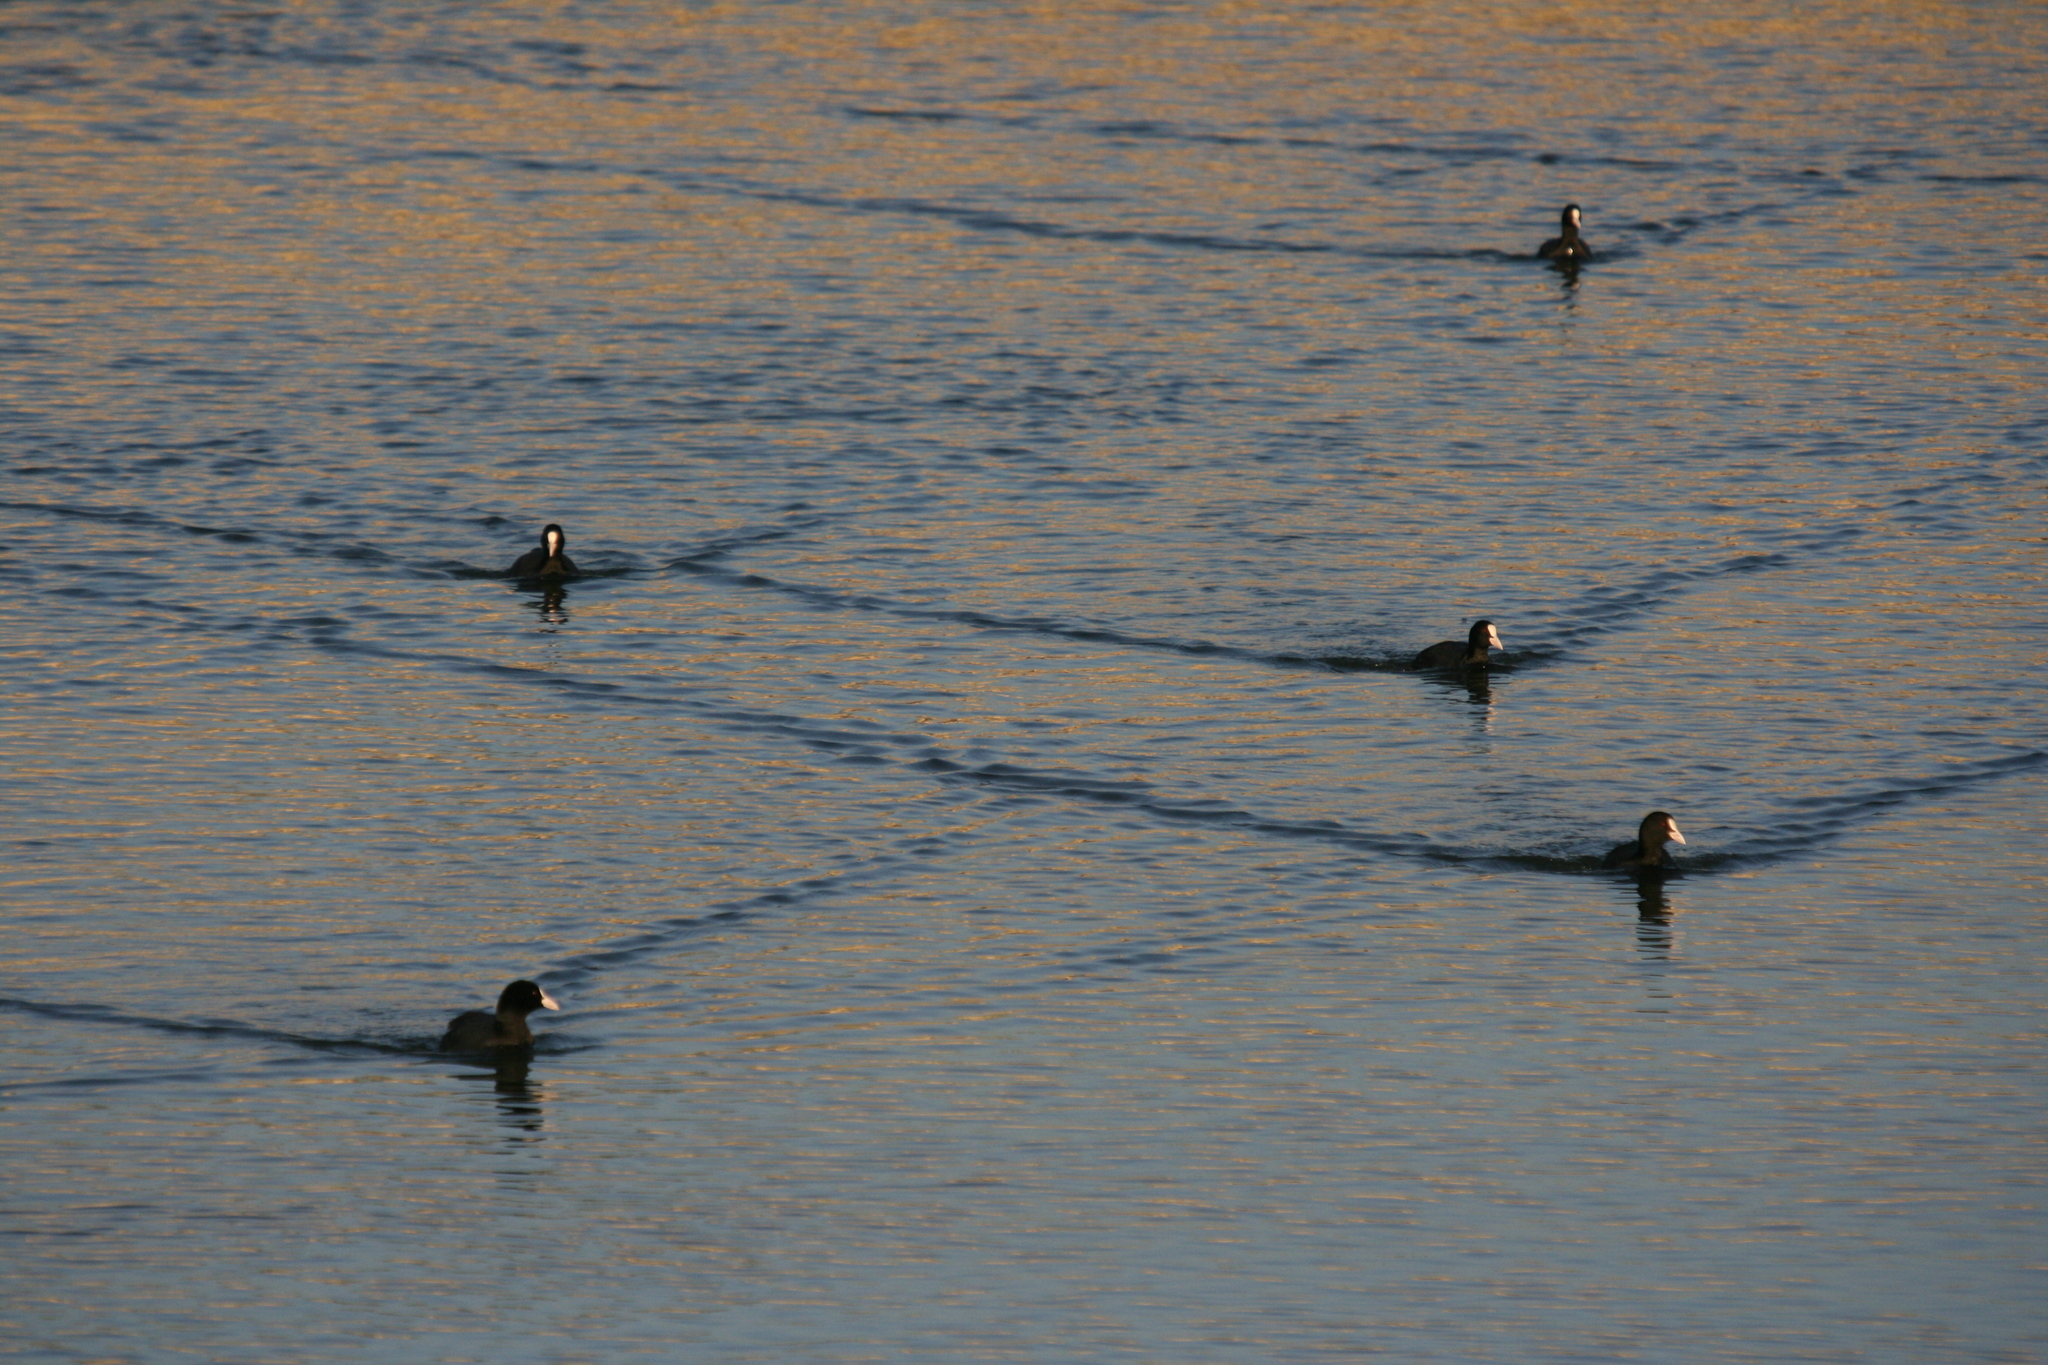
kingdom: Animalia
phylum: Chordata
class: Aves
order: Gruiformes
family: Rallidae
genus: Fulica
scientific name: Fulica atra
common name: Eurasian coot
